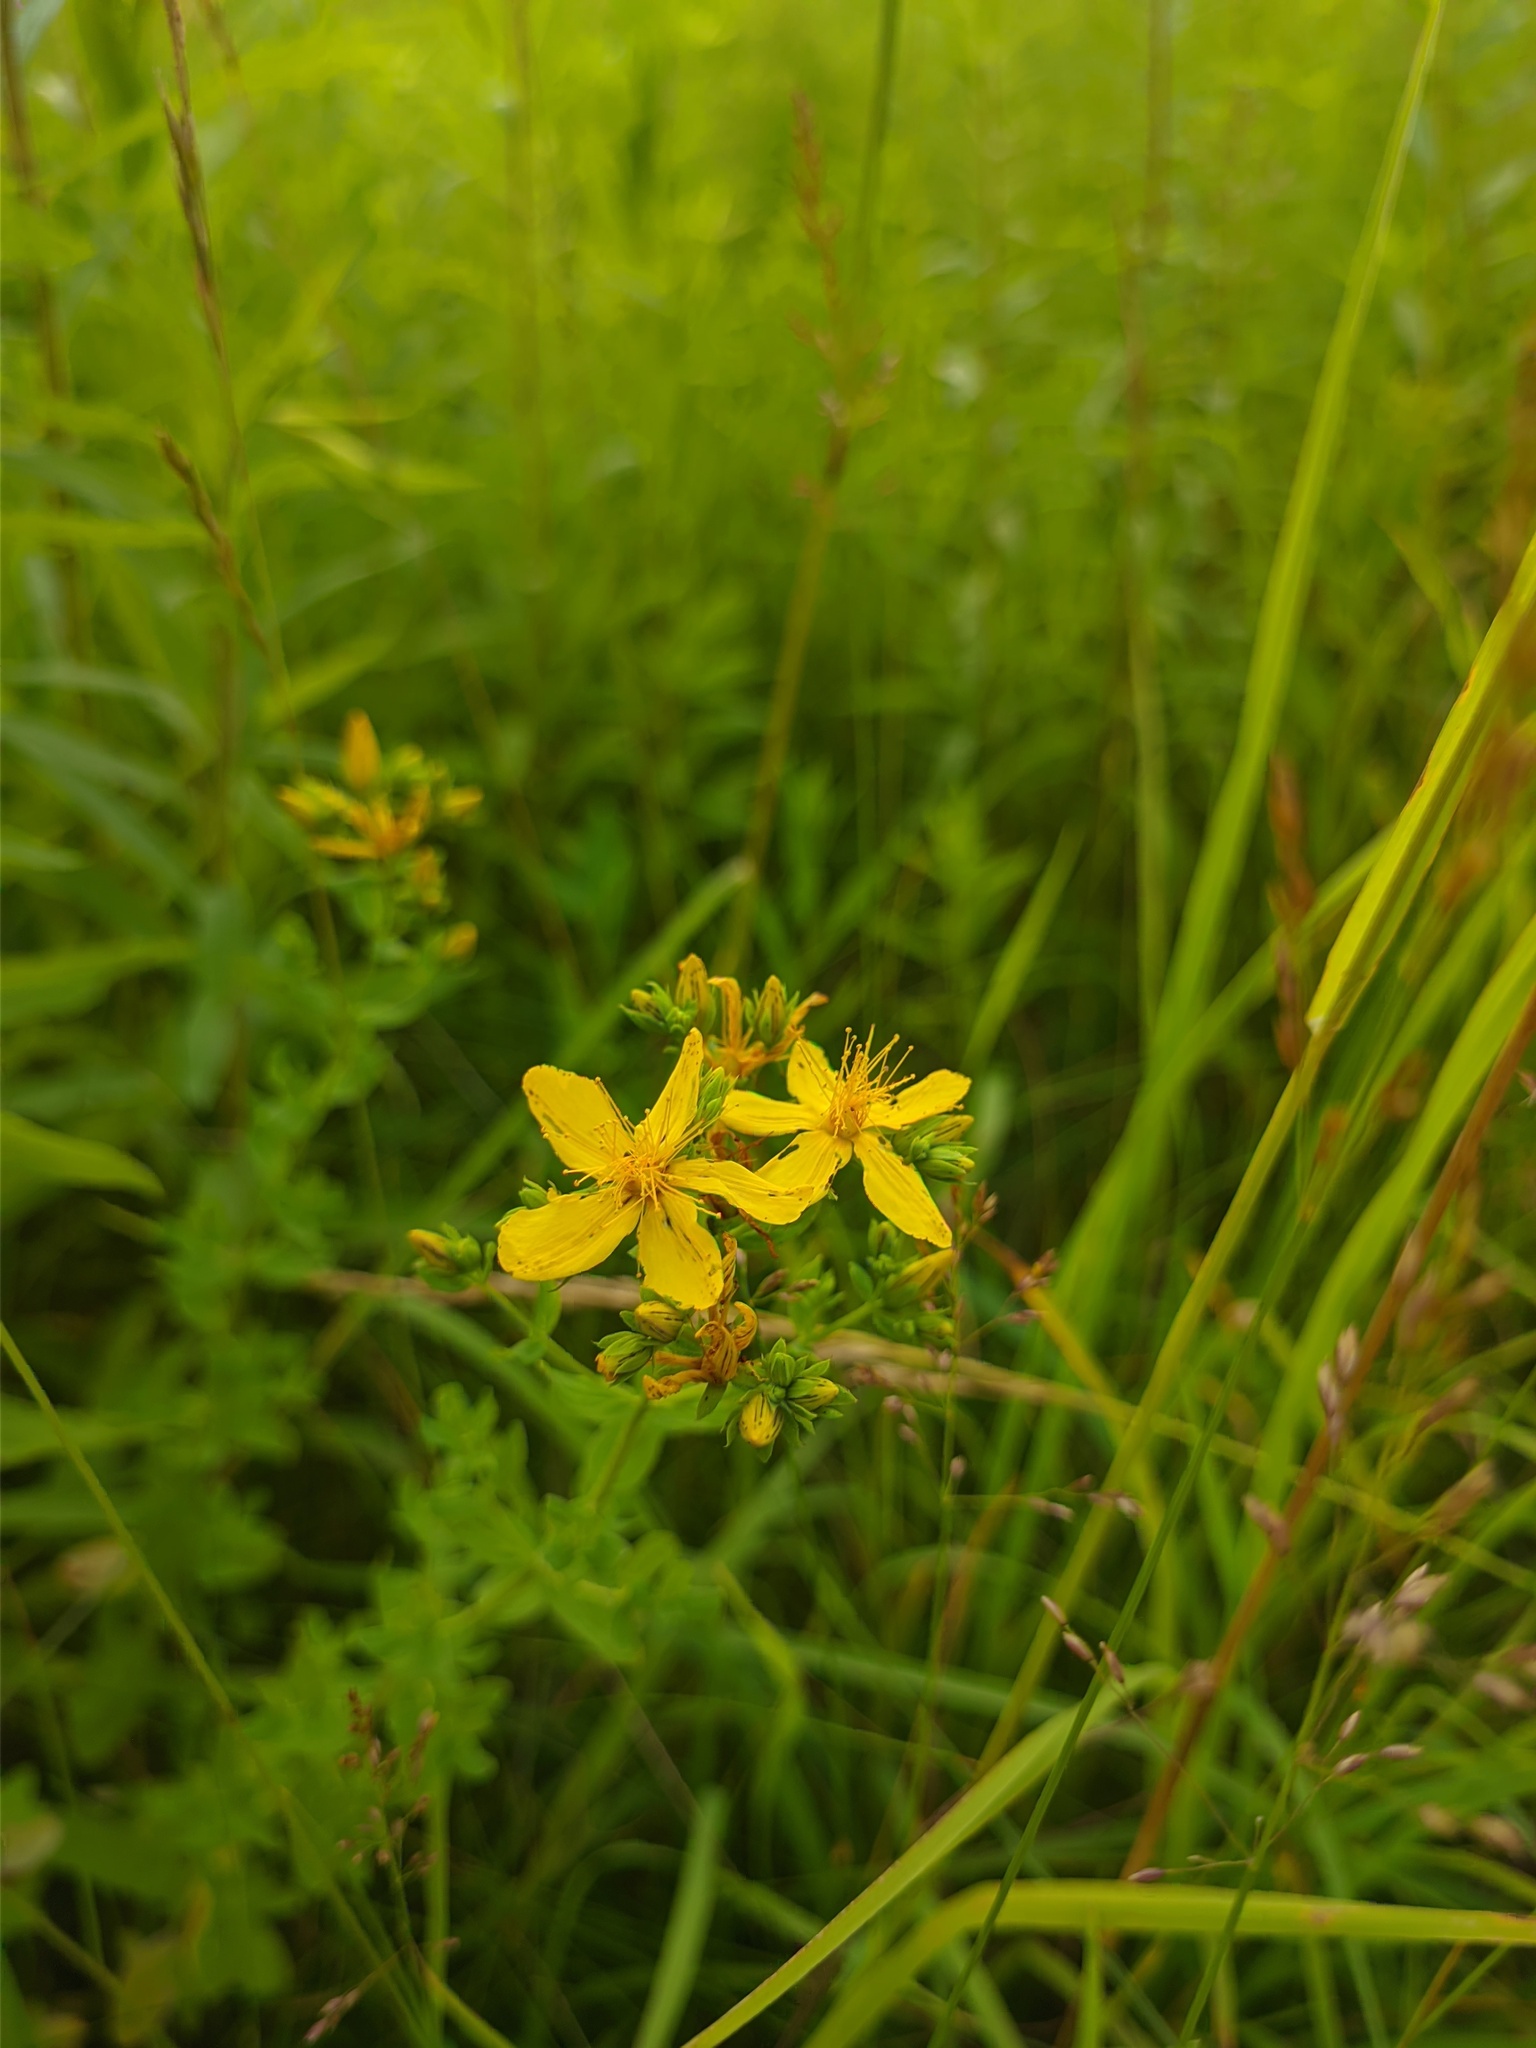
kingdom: Plantae
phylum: Tracheophyta
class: Magnoliopsida
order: Malpighiales
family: Hypericaceae
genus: Hypericum
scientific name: Hypericum perforatum
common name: Common st. johnswort
